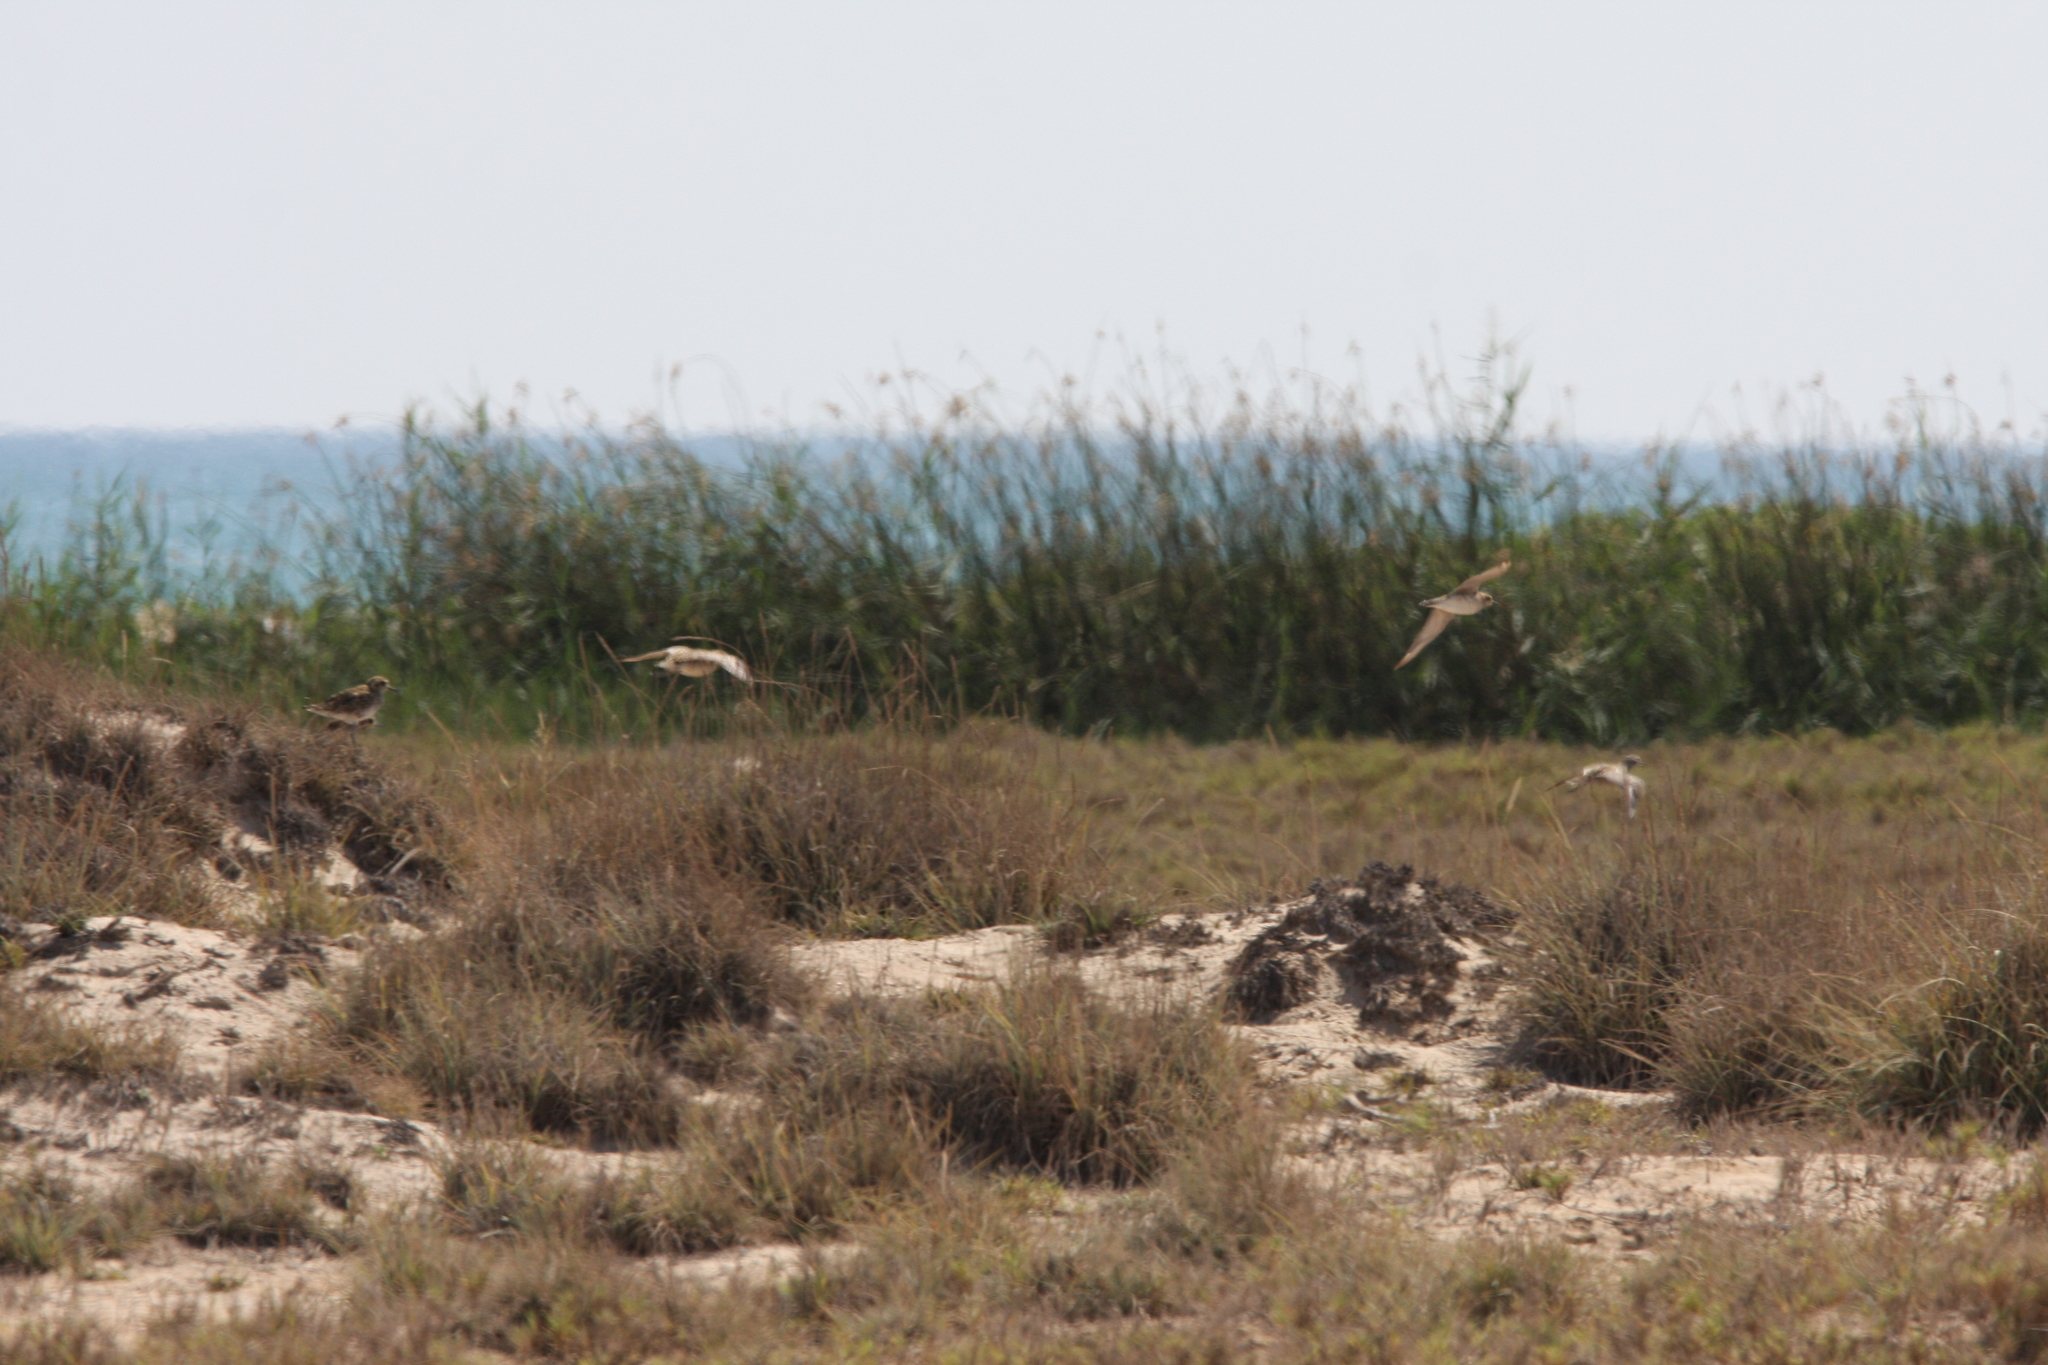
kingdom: Animalia
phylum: Chordata
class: Aves
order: Charadriiformes
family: Charadriidae
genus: Pluvialis
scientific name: Pluvialis fulva
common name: Pacific golden plover
